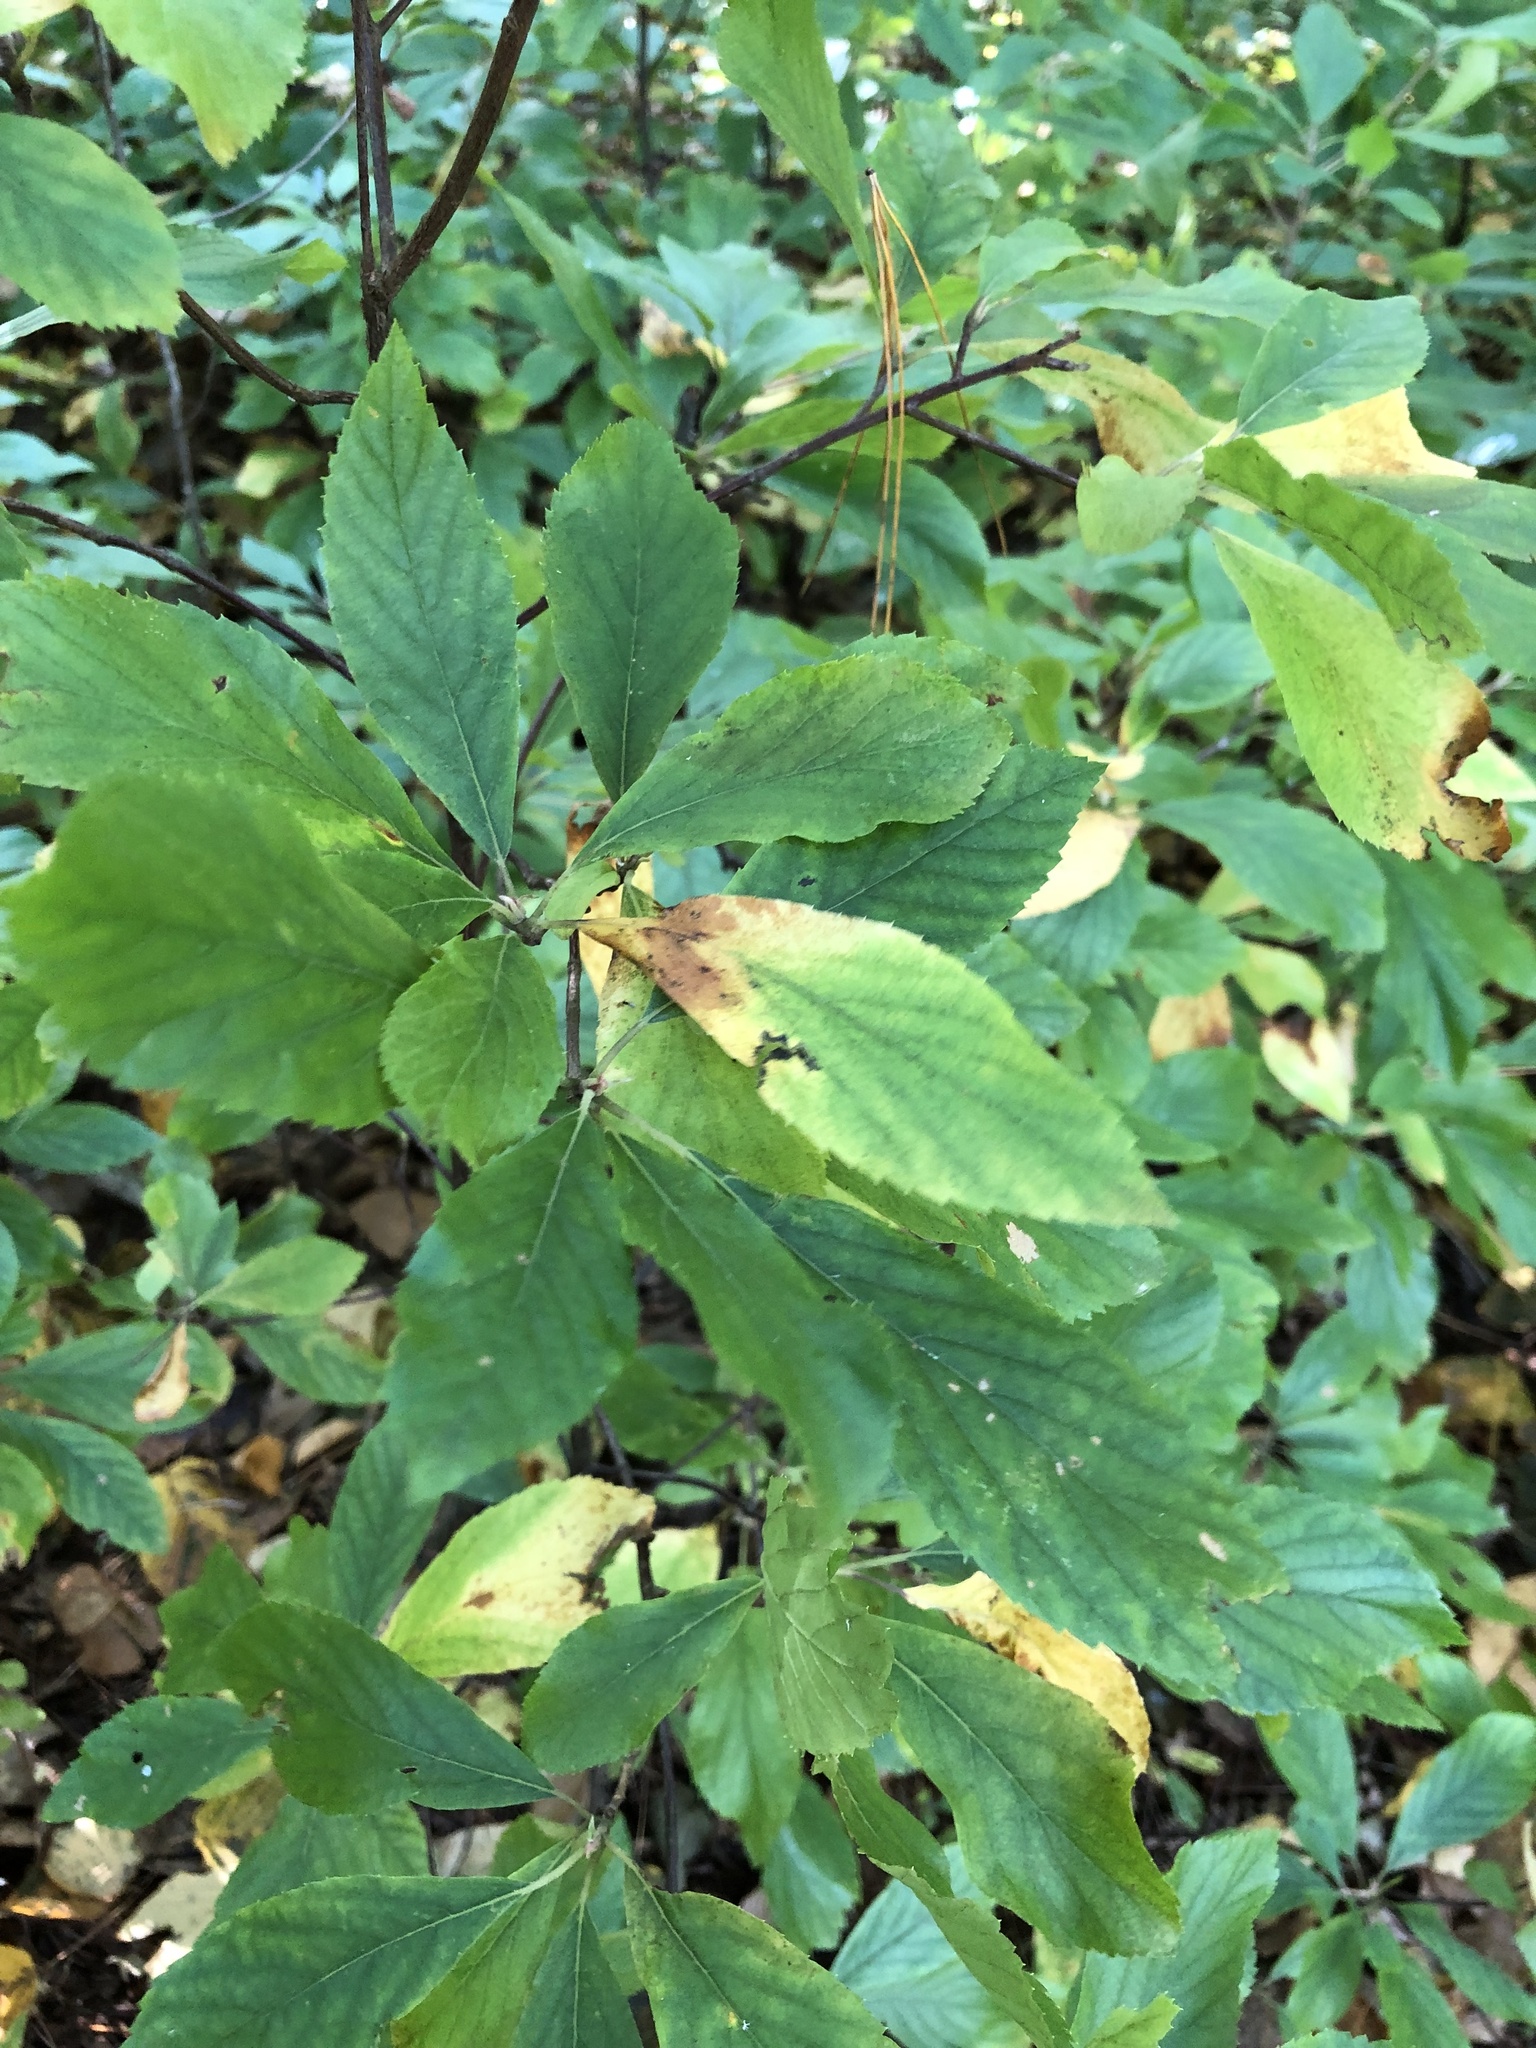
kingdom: Plantae
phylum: Tracheophyta
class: Magnoliopsida
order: Ericales
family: Clethraceae
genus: Clethra
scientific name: Clethra alnifolia
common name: Sweet pepperbush
